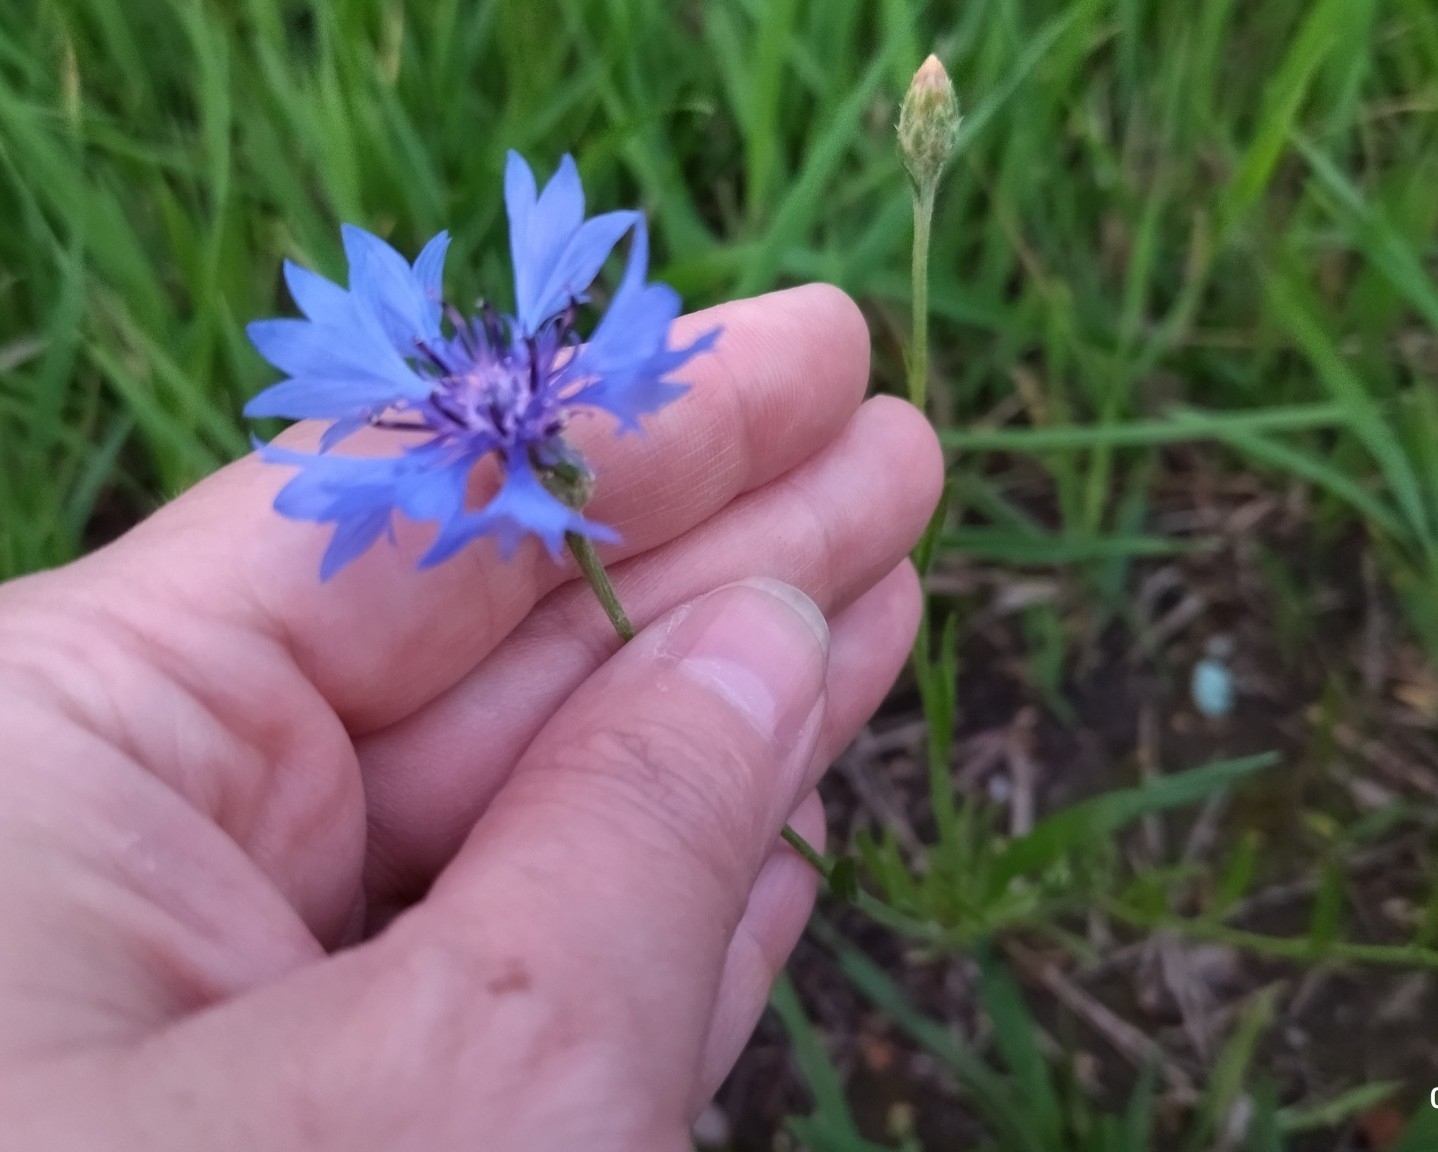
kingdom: Plantae
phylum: Tracheophyta
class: Magnoliopsida
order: Asterales
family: Asteraceae
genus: Centaurea
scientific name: Centaurea cyanus
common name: Cornflower
